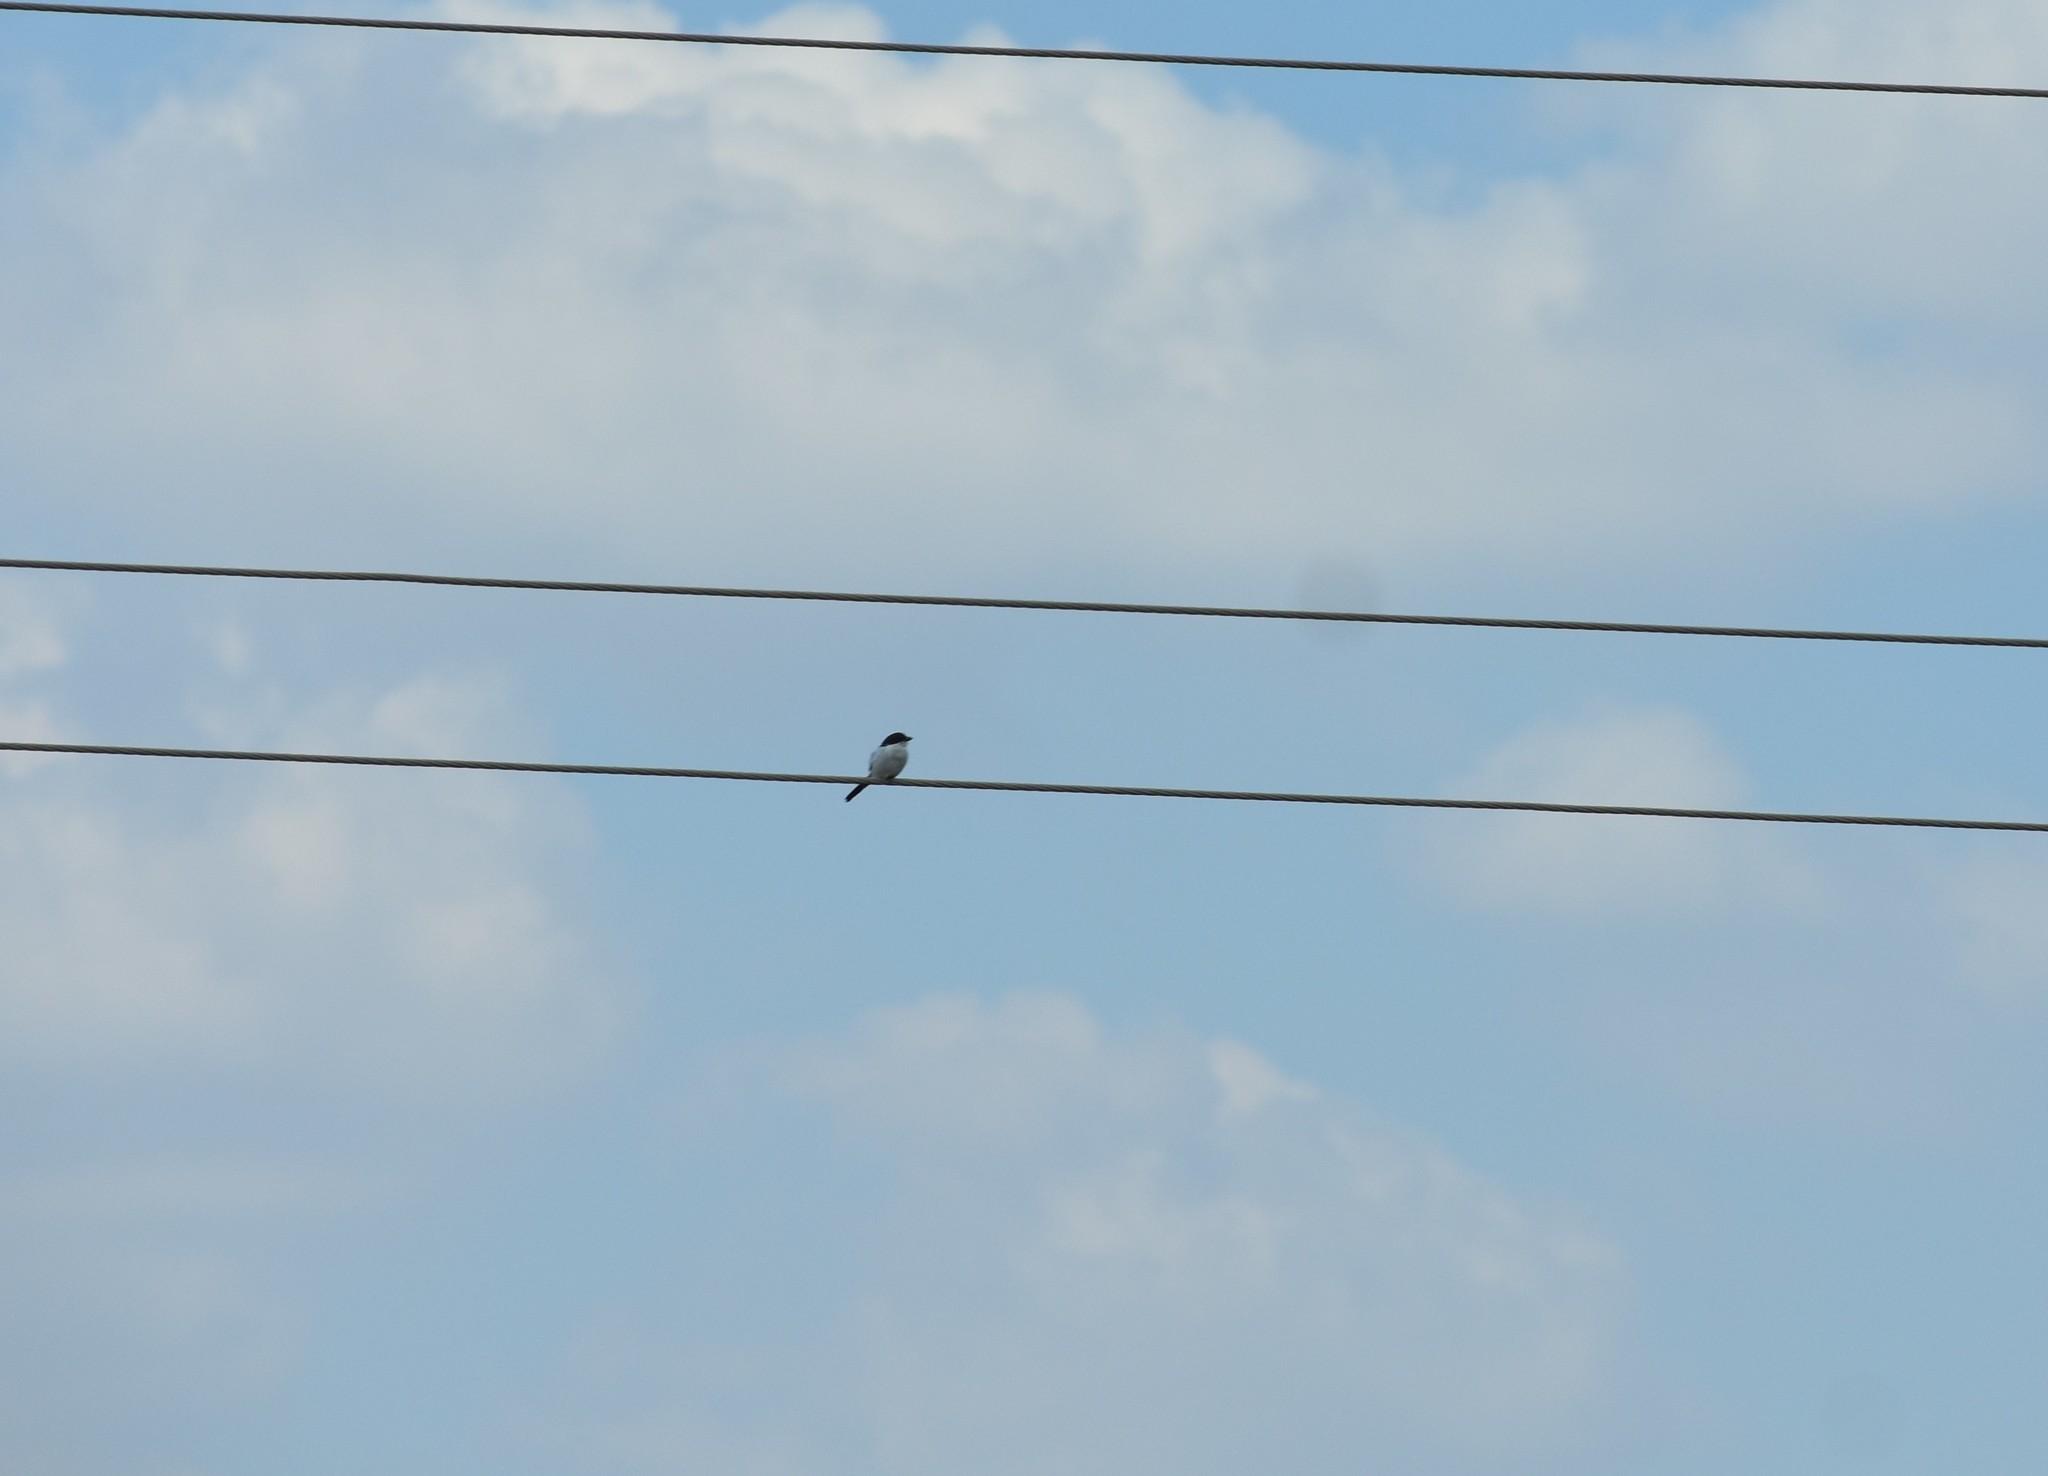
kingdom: Animalia
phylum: Chordata
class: Aves
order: Passeriformes
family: Laniidae
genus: Lanius
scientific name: Lanius collaris
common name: Southern fiscal
